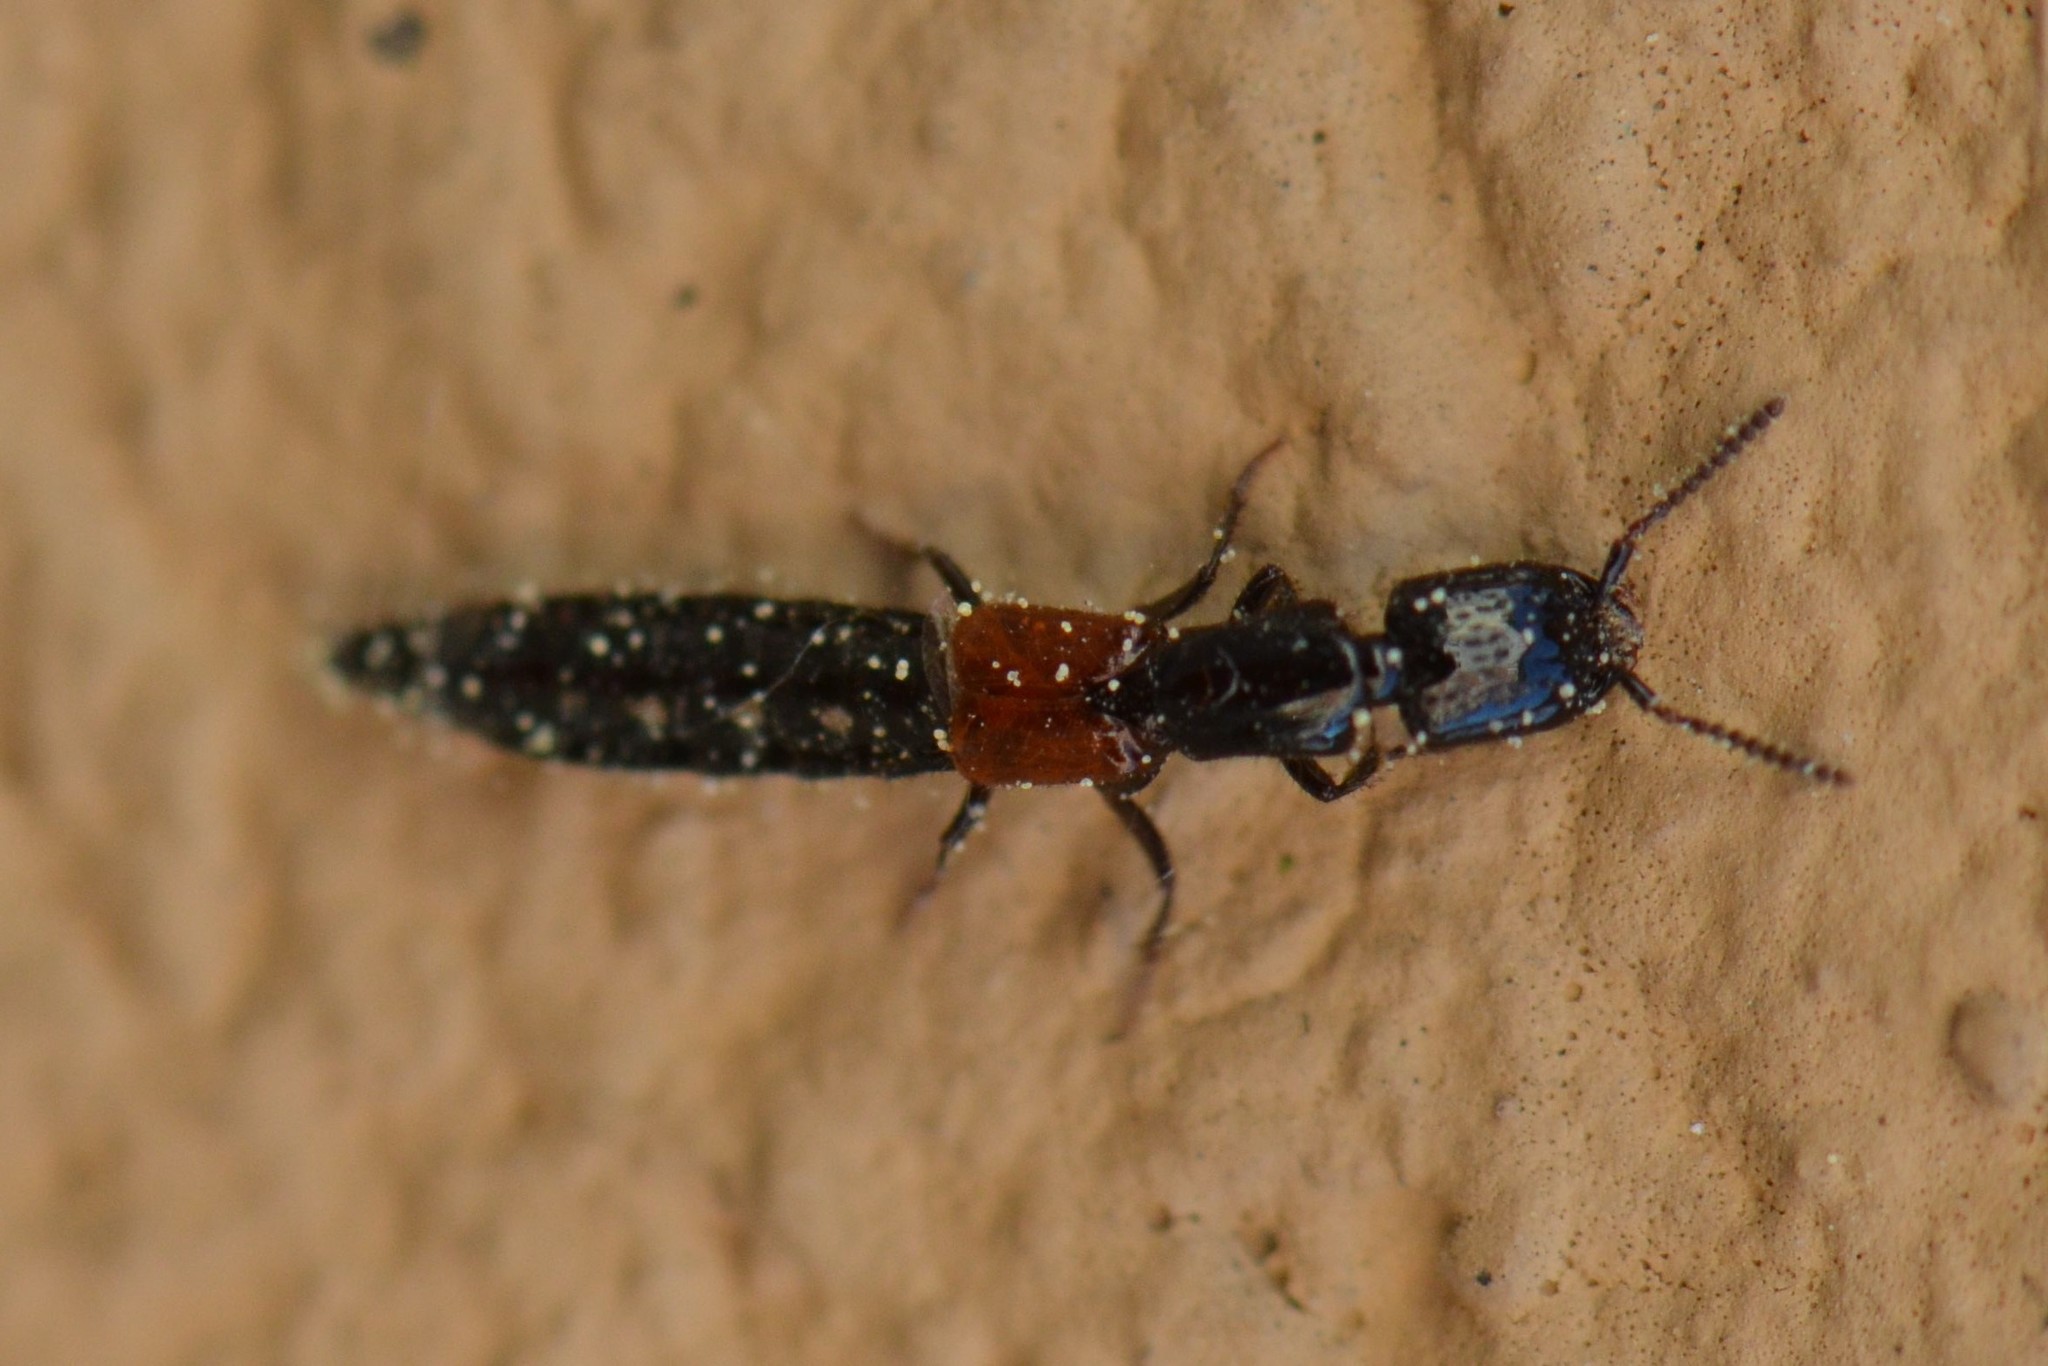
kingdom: Animalia
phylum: Arthropoda
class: Insecta
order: Coleoptera
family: Staphylinidae
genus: Gauropterus
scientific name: Gauropterus fulgidus
